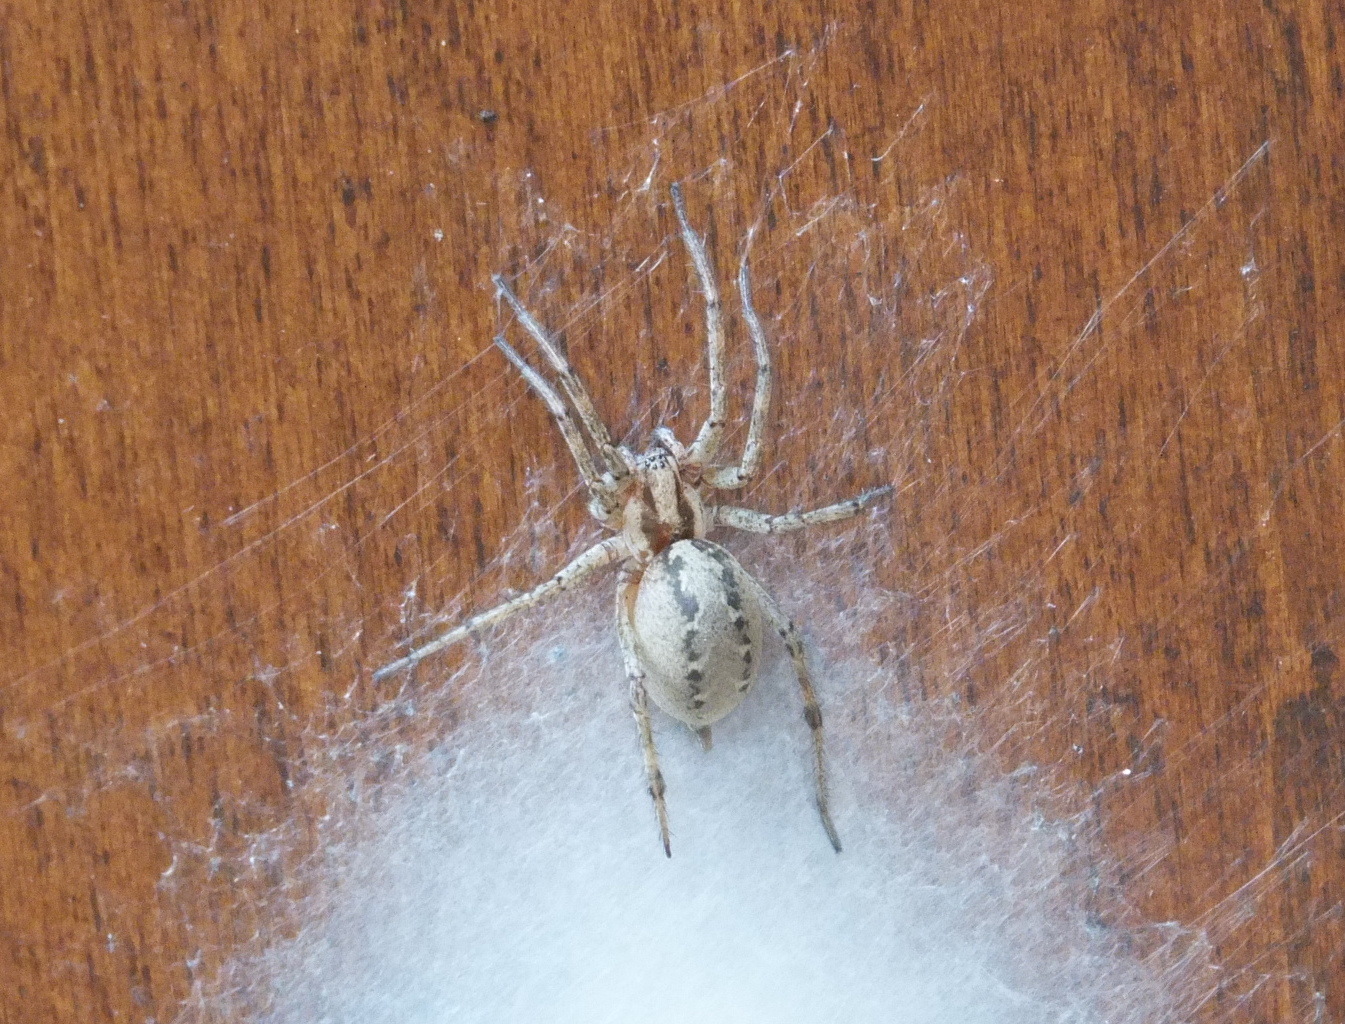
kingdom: Animalia
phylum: Arthropoda
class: Arachnida
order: Araneae
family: Agelenidae
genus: Agelena
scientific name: Agelena labyrinthica
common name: Labyrinth spider
